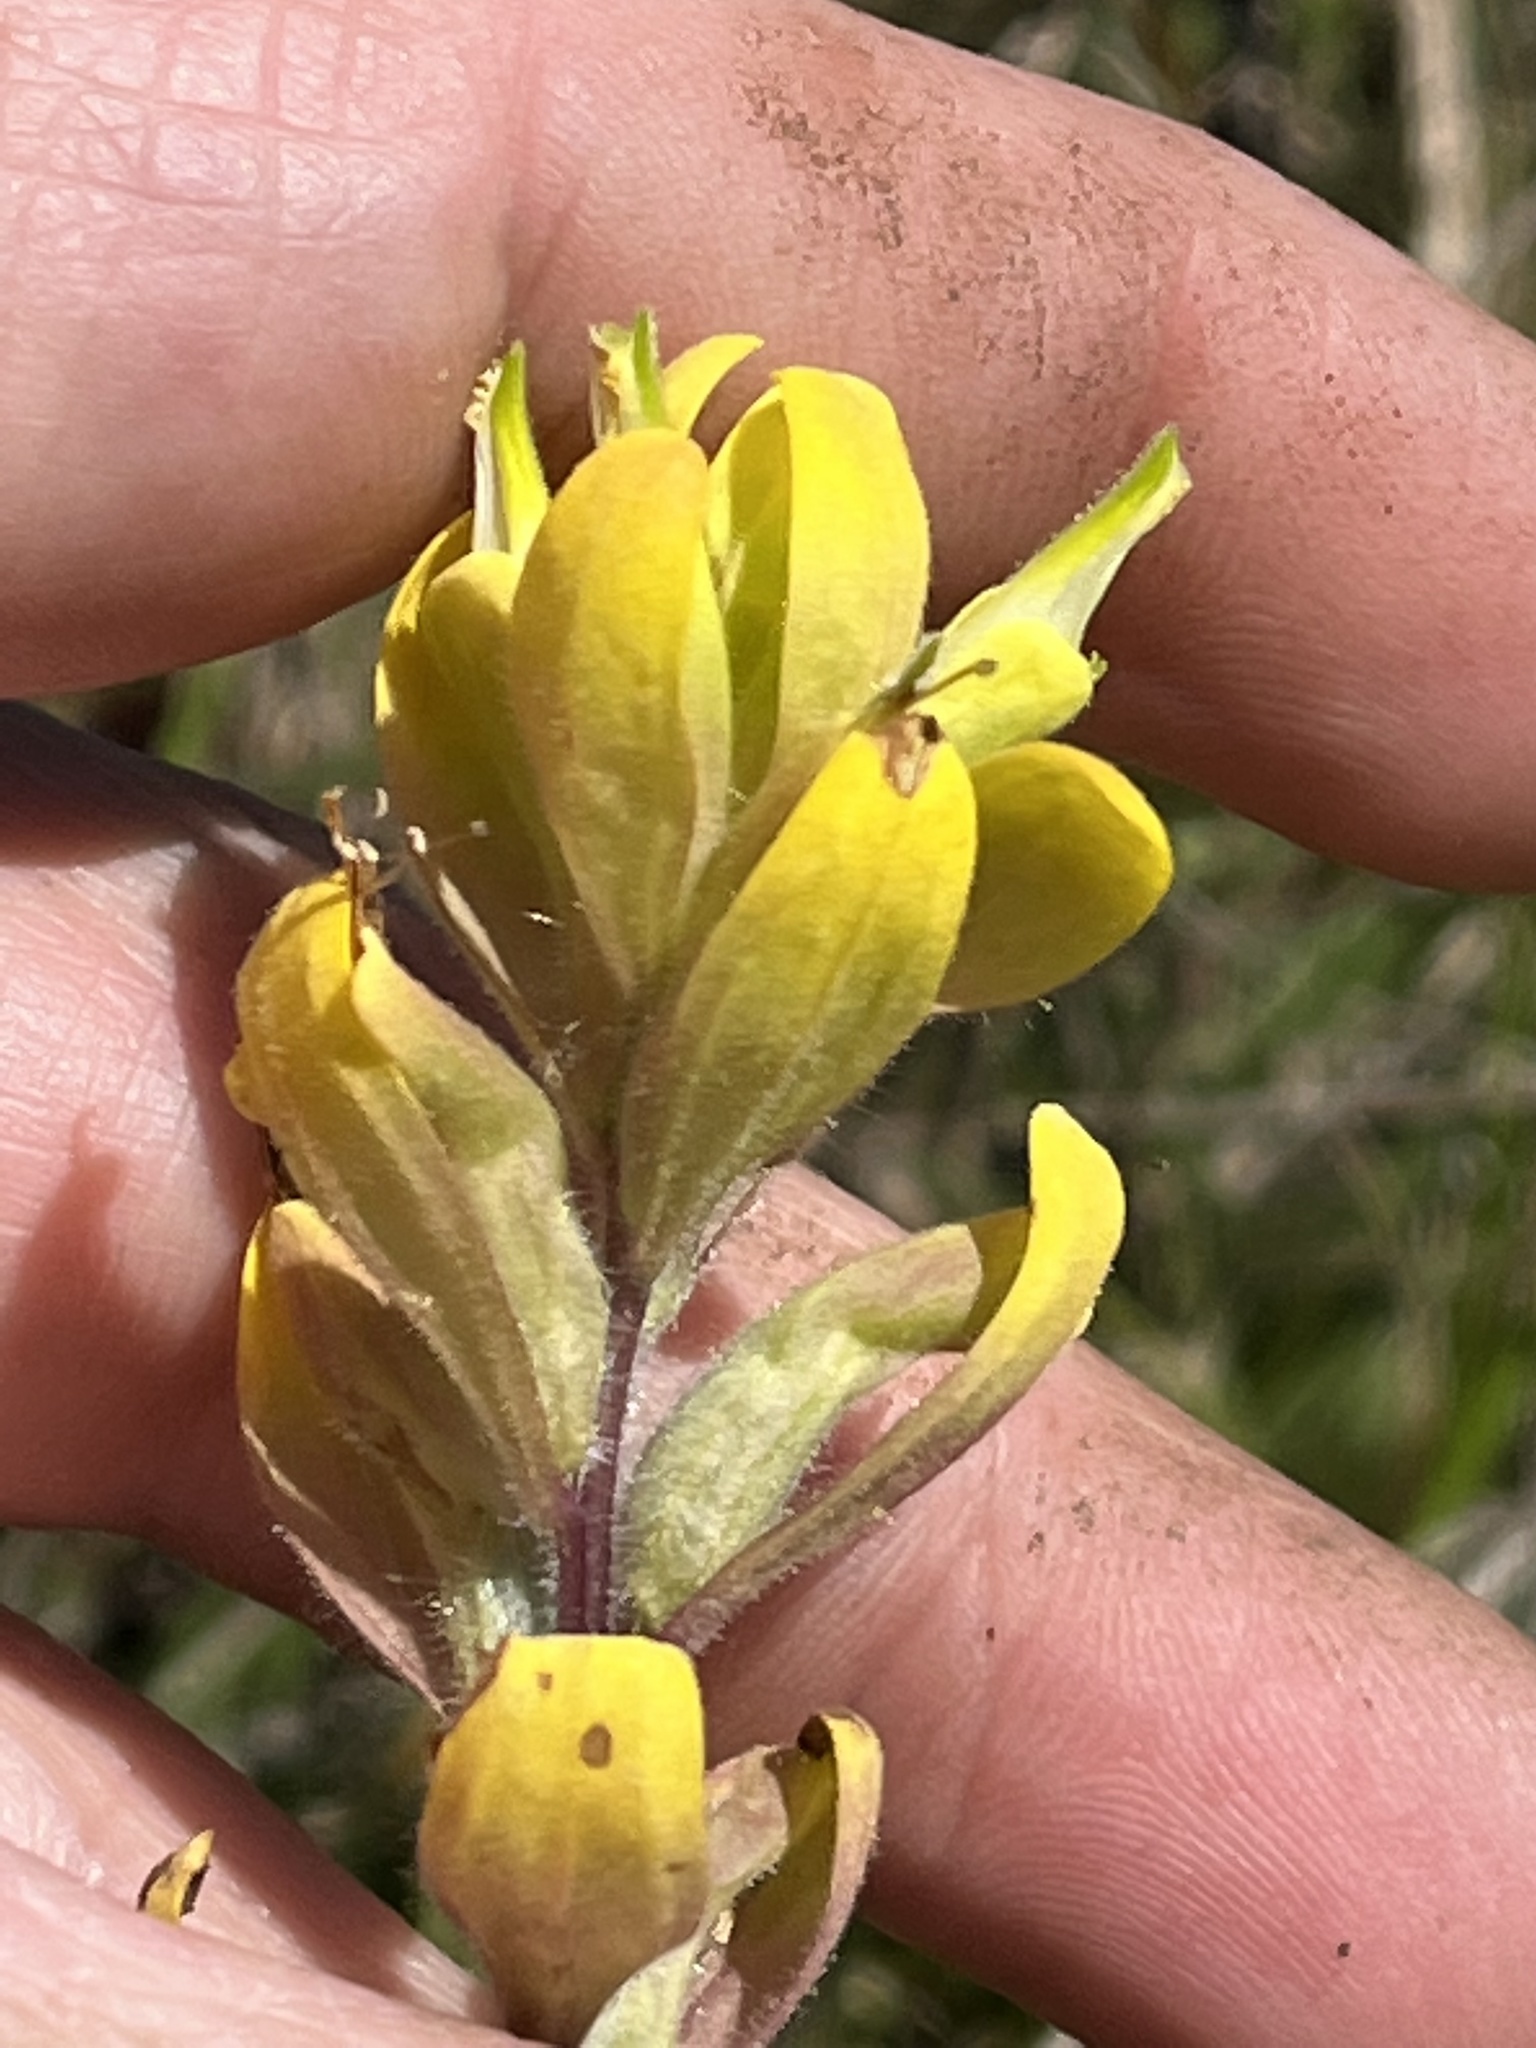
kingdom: Plantae
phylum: Tracheophyta
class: Magnoliopsida
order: Lamiales
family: Orobanchaceae
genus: Castilleja
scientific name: Castilleja kraliana
